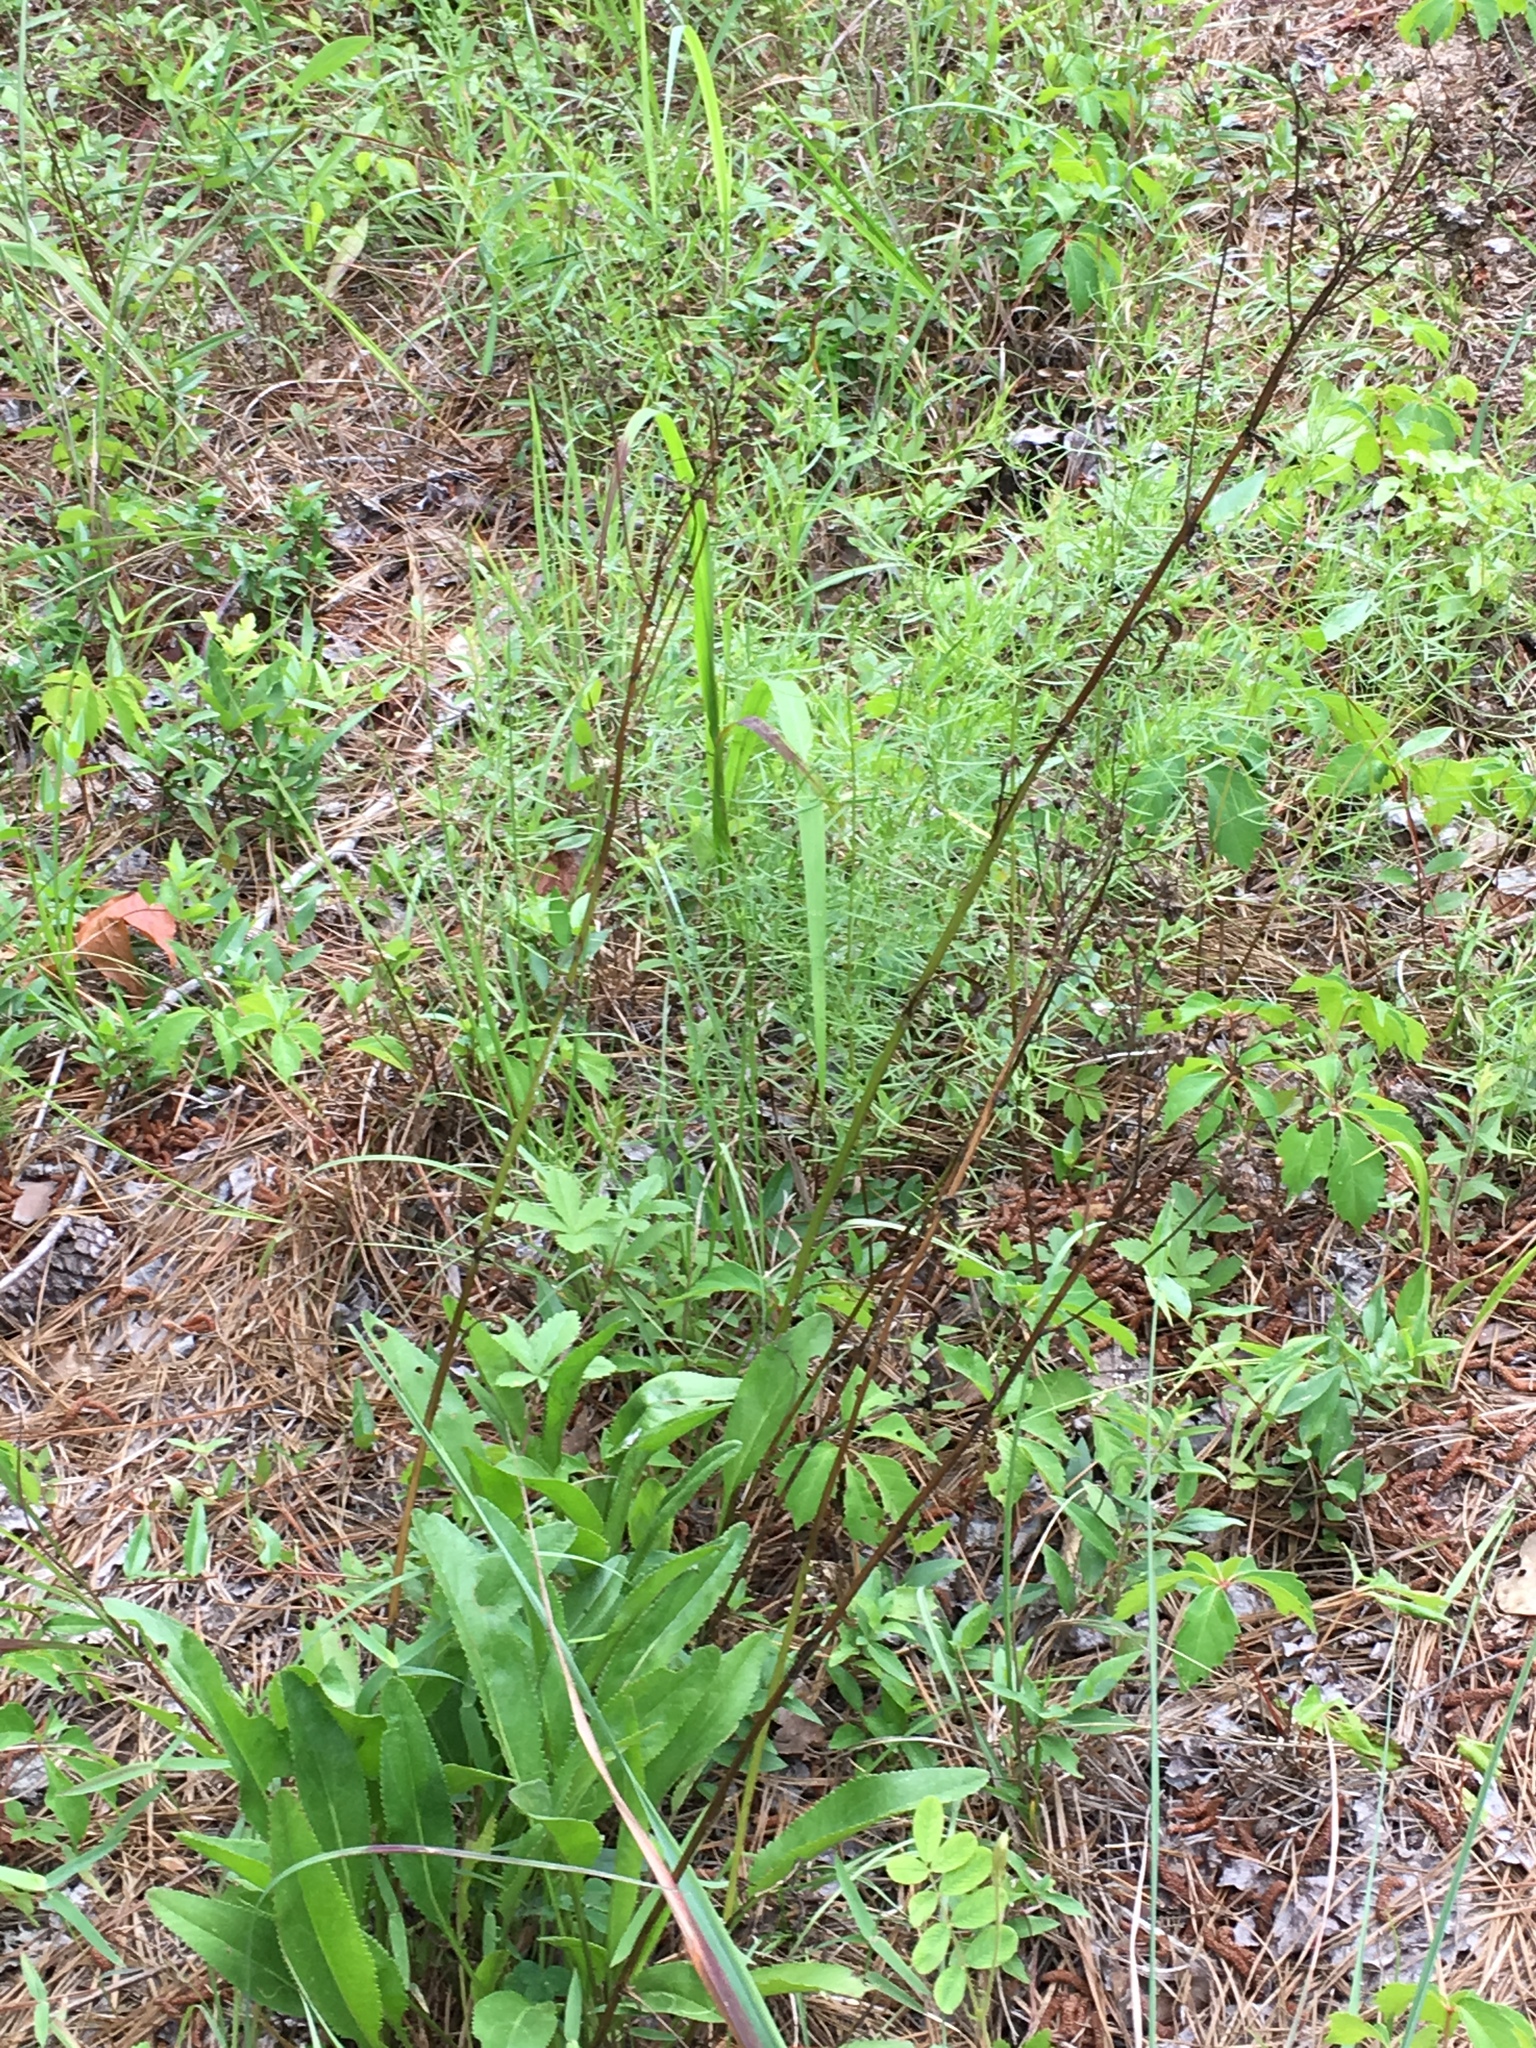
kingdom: Plantae
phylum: Tracheophyta
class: Magnoliopsida
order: Asterales
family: Asteraceae
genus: Packera
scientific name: Packera anonyma
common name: Small ragwort
